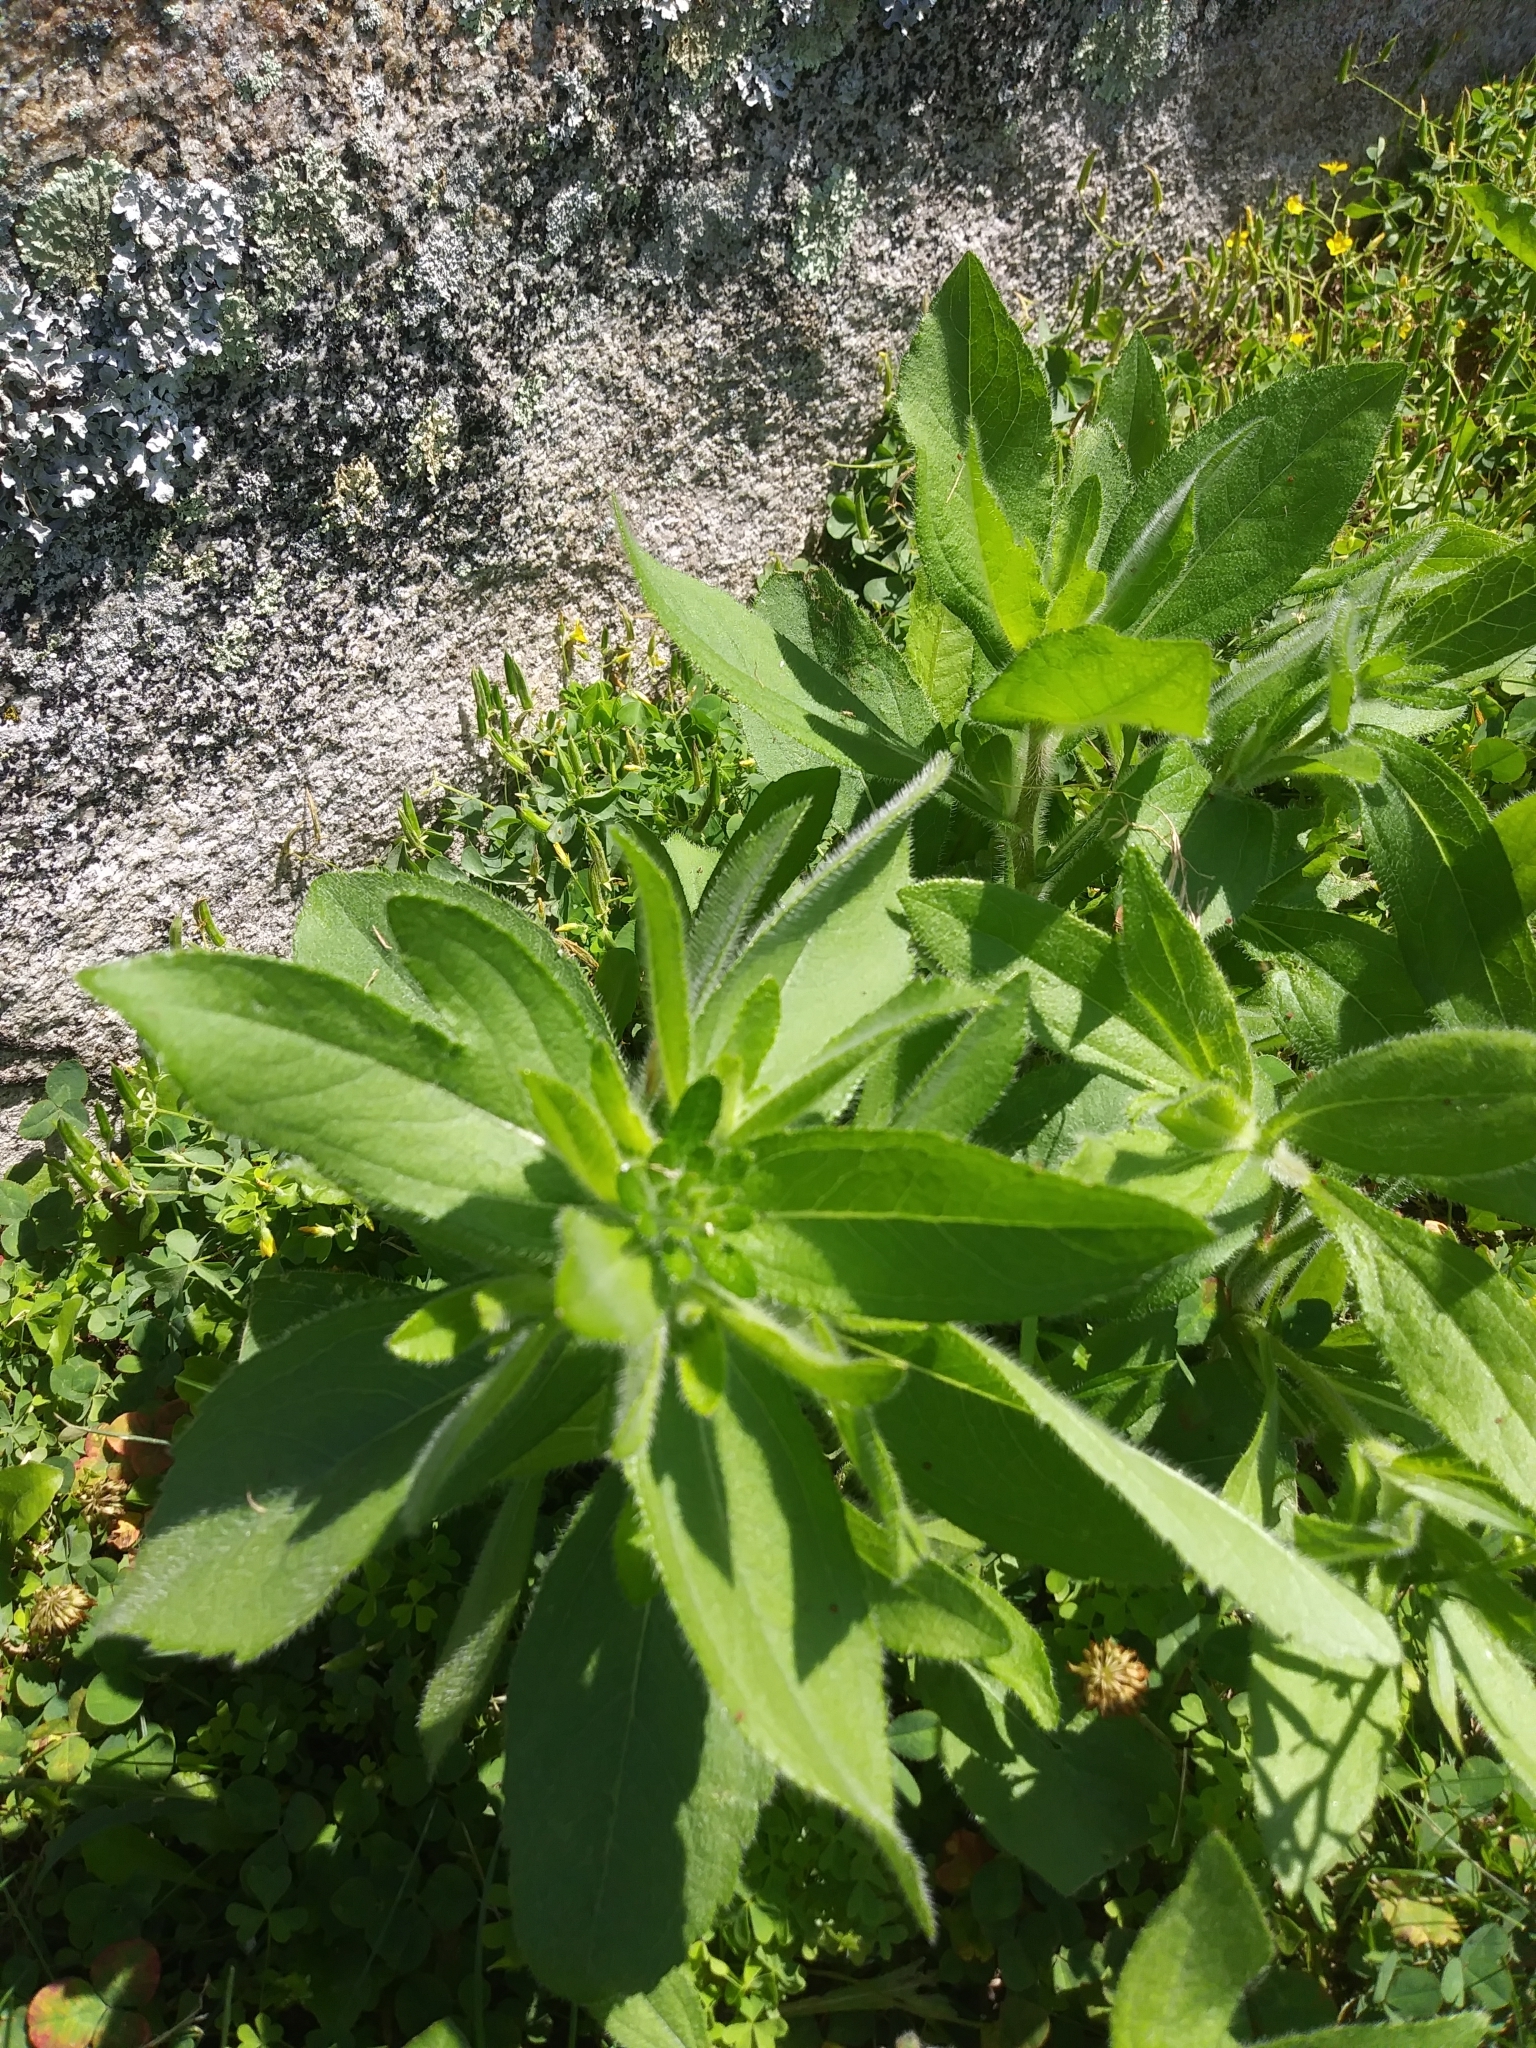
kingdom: Plantae
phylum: Tracheophyta
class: Magnoliopsida
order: Asterales
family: Asteraceae
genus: Rudbeckia
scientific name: Rudbeckia hirta
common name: Black-eyed-susan
